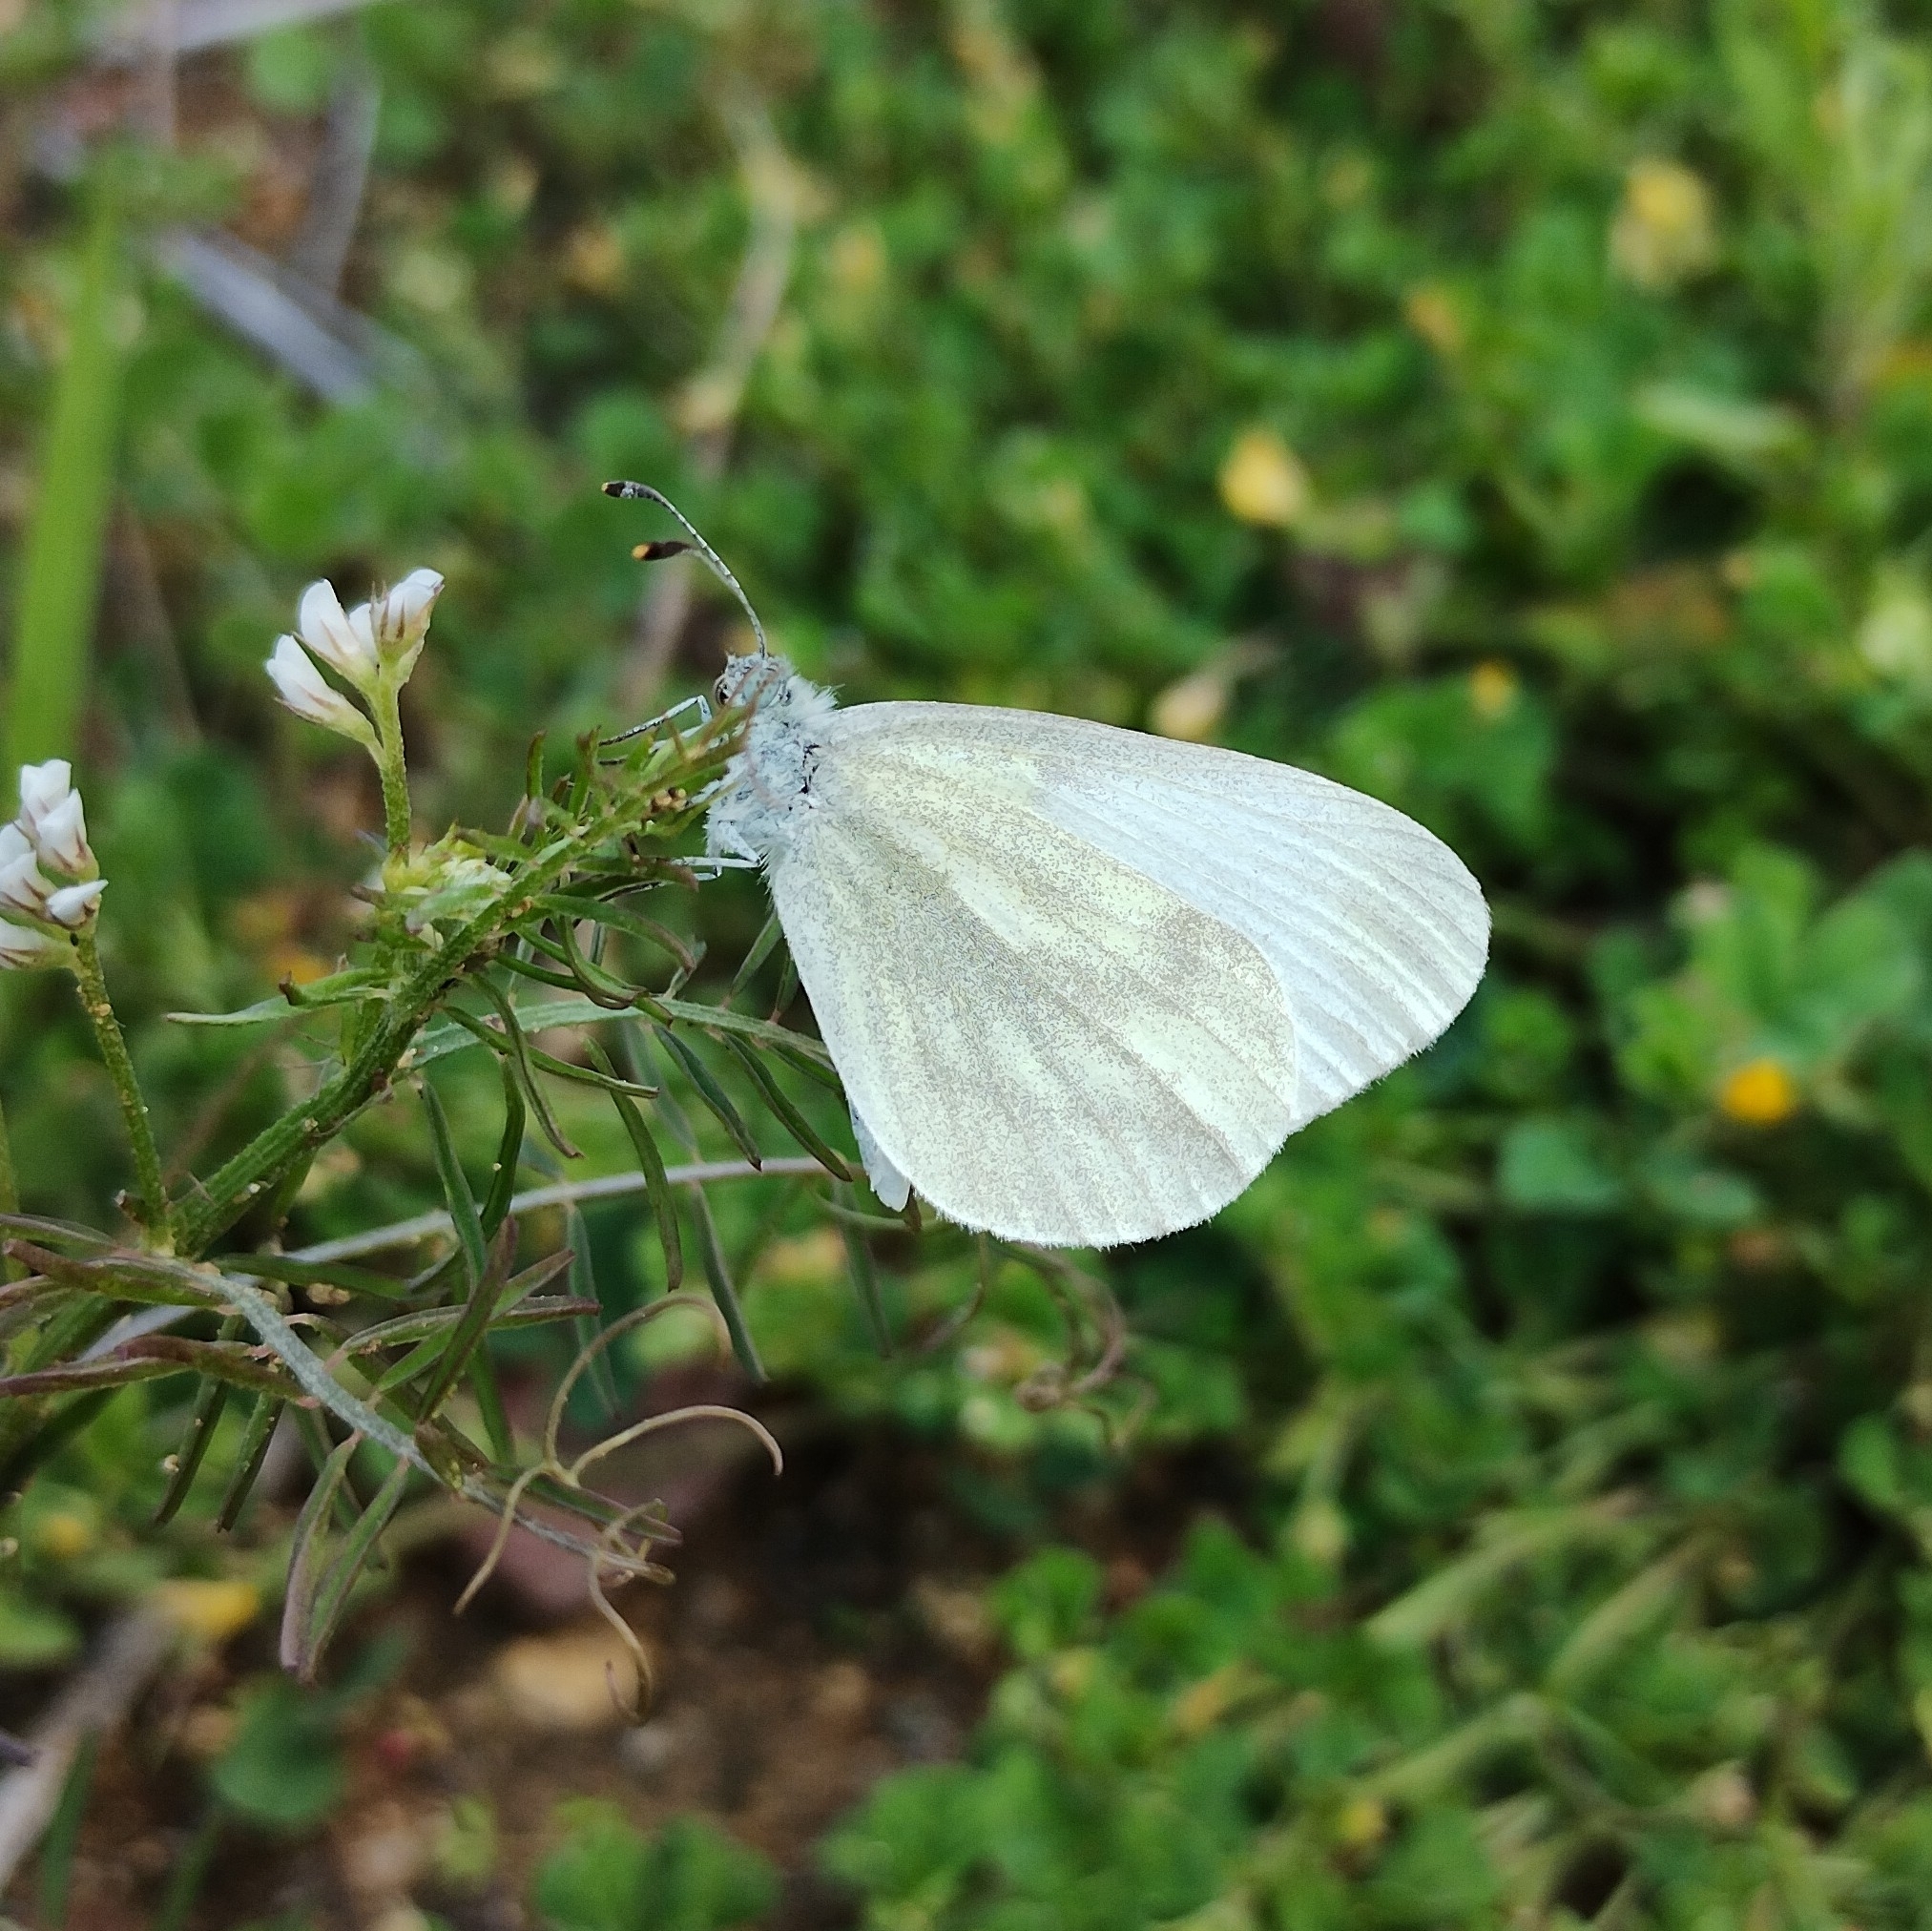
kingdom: Animalia
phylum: Arthropoda
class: Insecta
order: Lepidoptera
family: Pieridae
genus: Leptidea
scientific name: Leptidea
